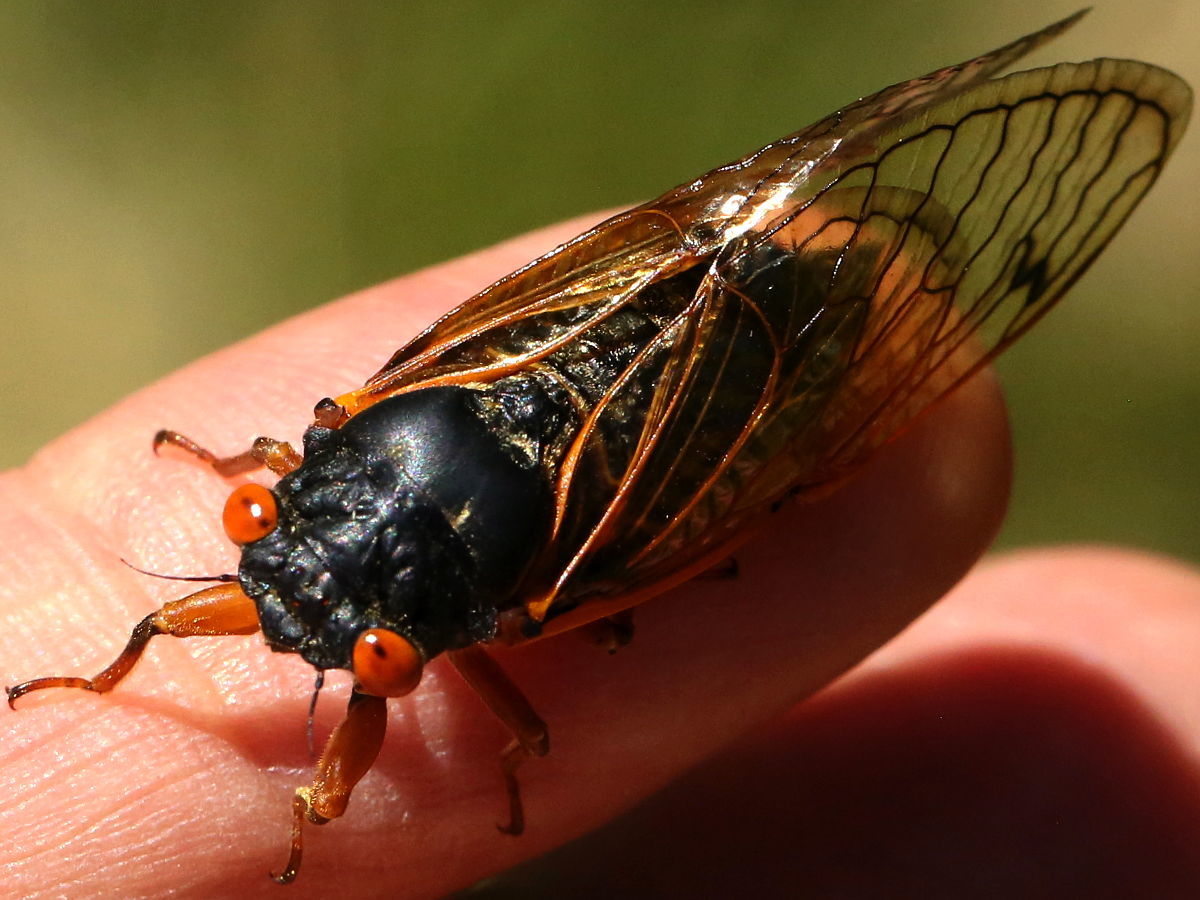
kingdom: Animalia
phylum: Arthropoda
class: Insecta
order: Hemiptera
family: Cicadidae
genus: Magicicada
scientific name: Magicicada cassini
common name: Cassin's 17-year cicada
